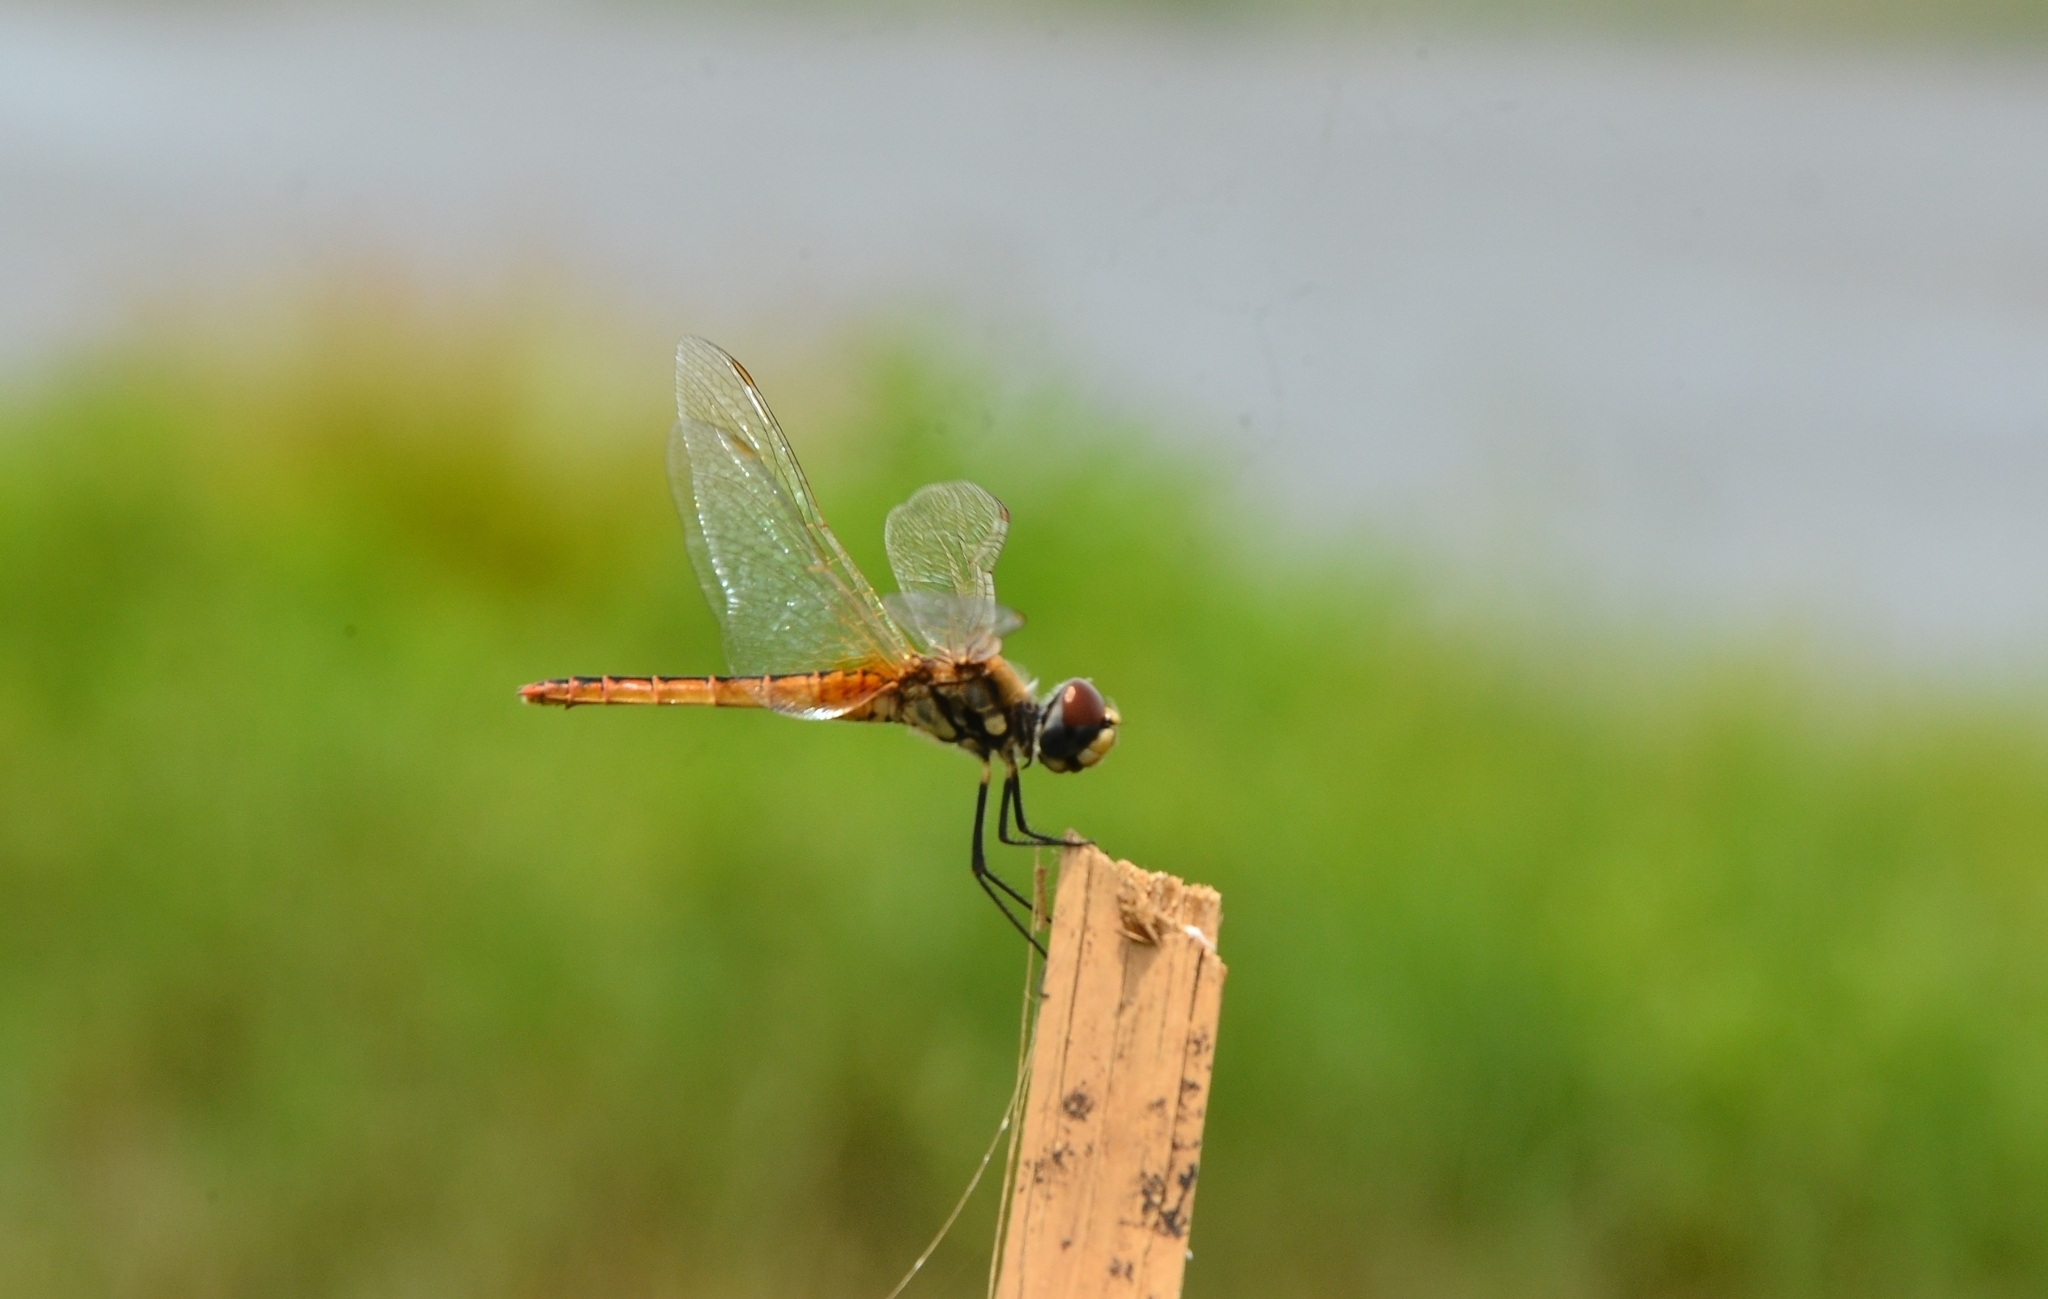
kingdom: Animalia
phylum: Arthropoda
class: Insecta
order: Odonata
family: Libellulidae
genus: Macrodiplax
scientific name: Macrodiplax cora
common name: Coastal glider
